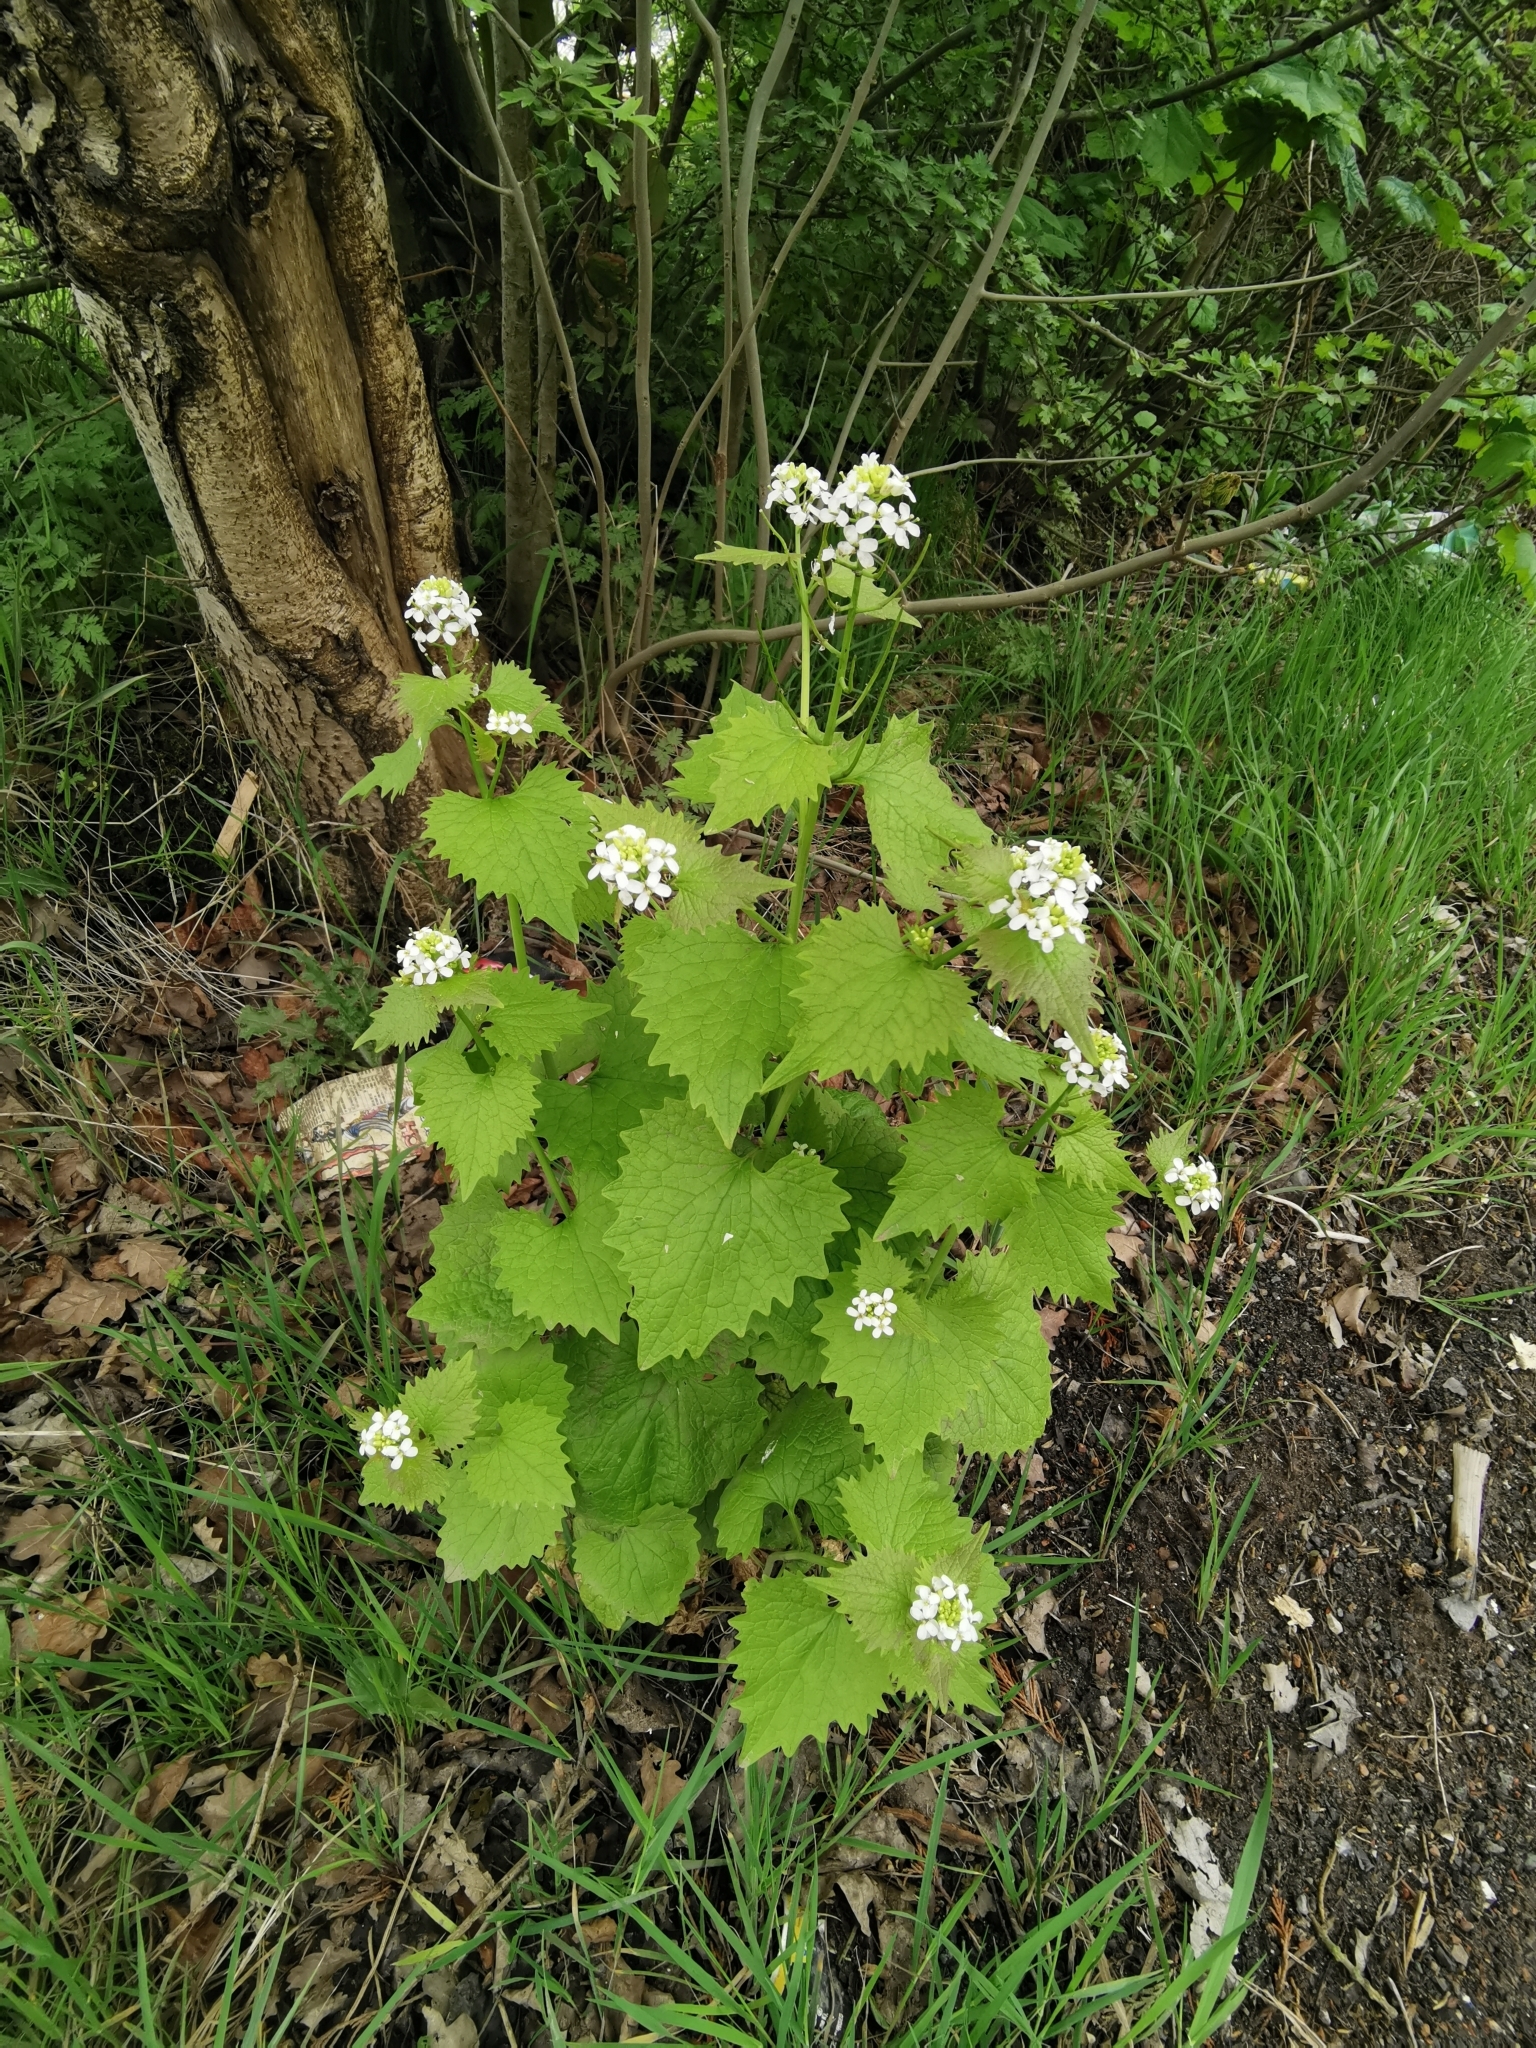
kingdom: Plantae
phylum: Tracheophyta
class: Magnoliopsida
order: Brassicales
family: Brassicaceae
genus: Alliaria
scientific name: Alliaria petiolata
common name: Garlic mustard
